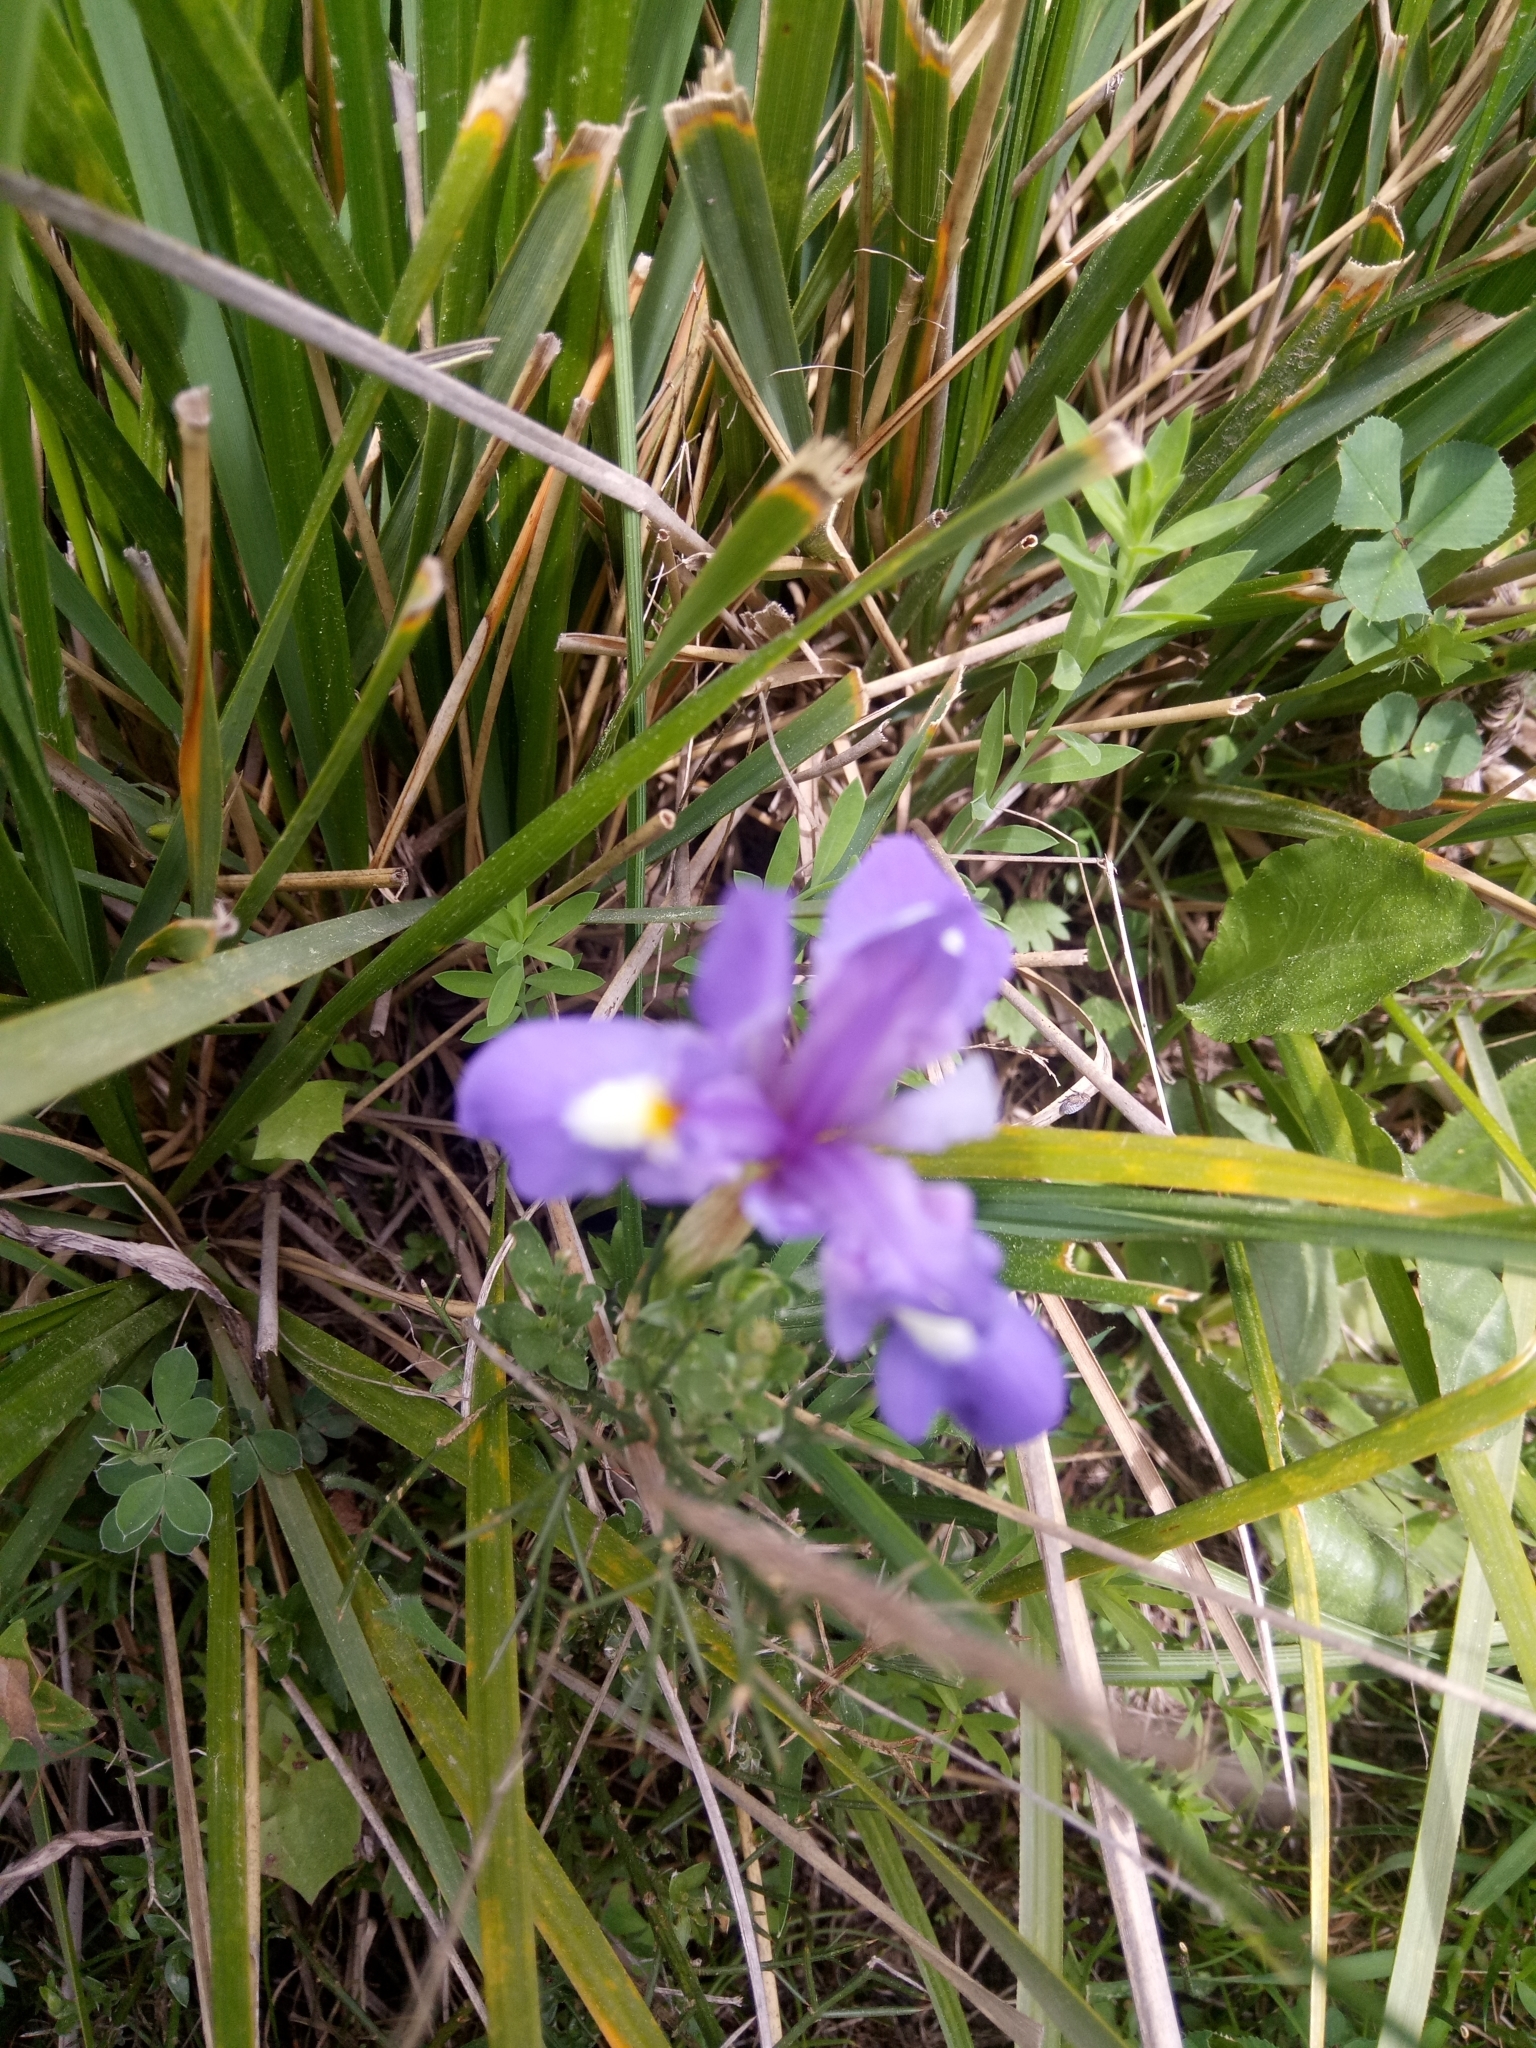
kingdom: Plantae
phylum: Tracheophyta
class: Liliopsida
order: Asparagales
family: Iridaceae
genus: Moraea
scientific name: Moraea sisyrinchium
